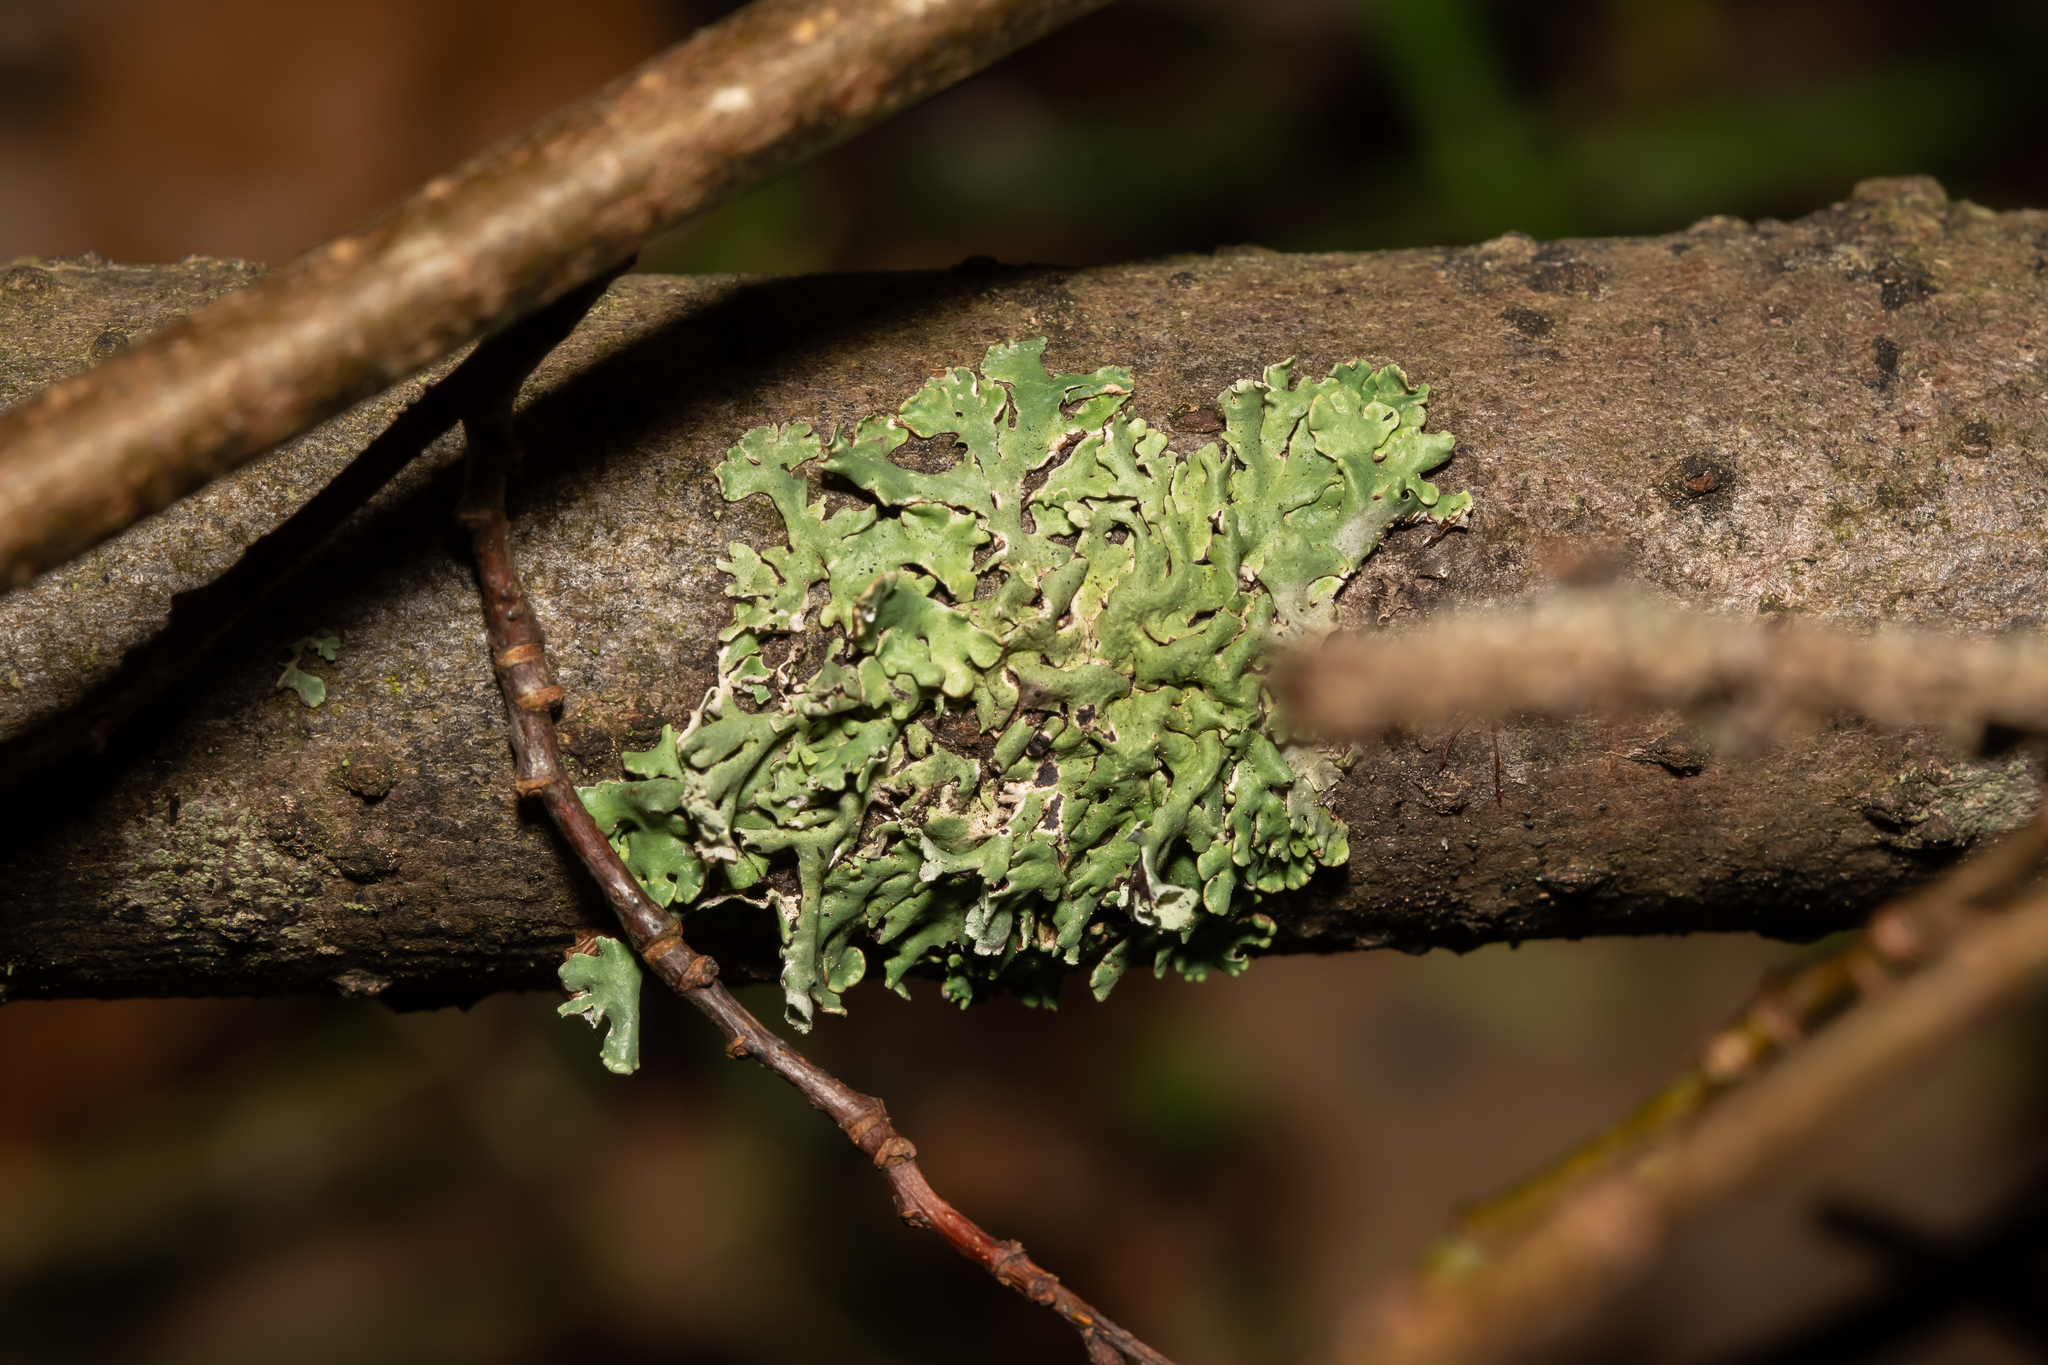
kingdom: Fungi
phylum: Ascomycota
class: Lecanoromycetes
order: Lecanorales
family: Parmeliaceae
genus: Hypogymnia
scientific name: Hypogymnia physodes
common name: Dark crottle
